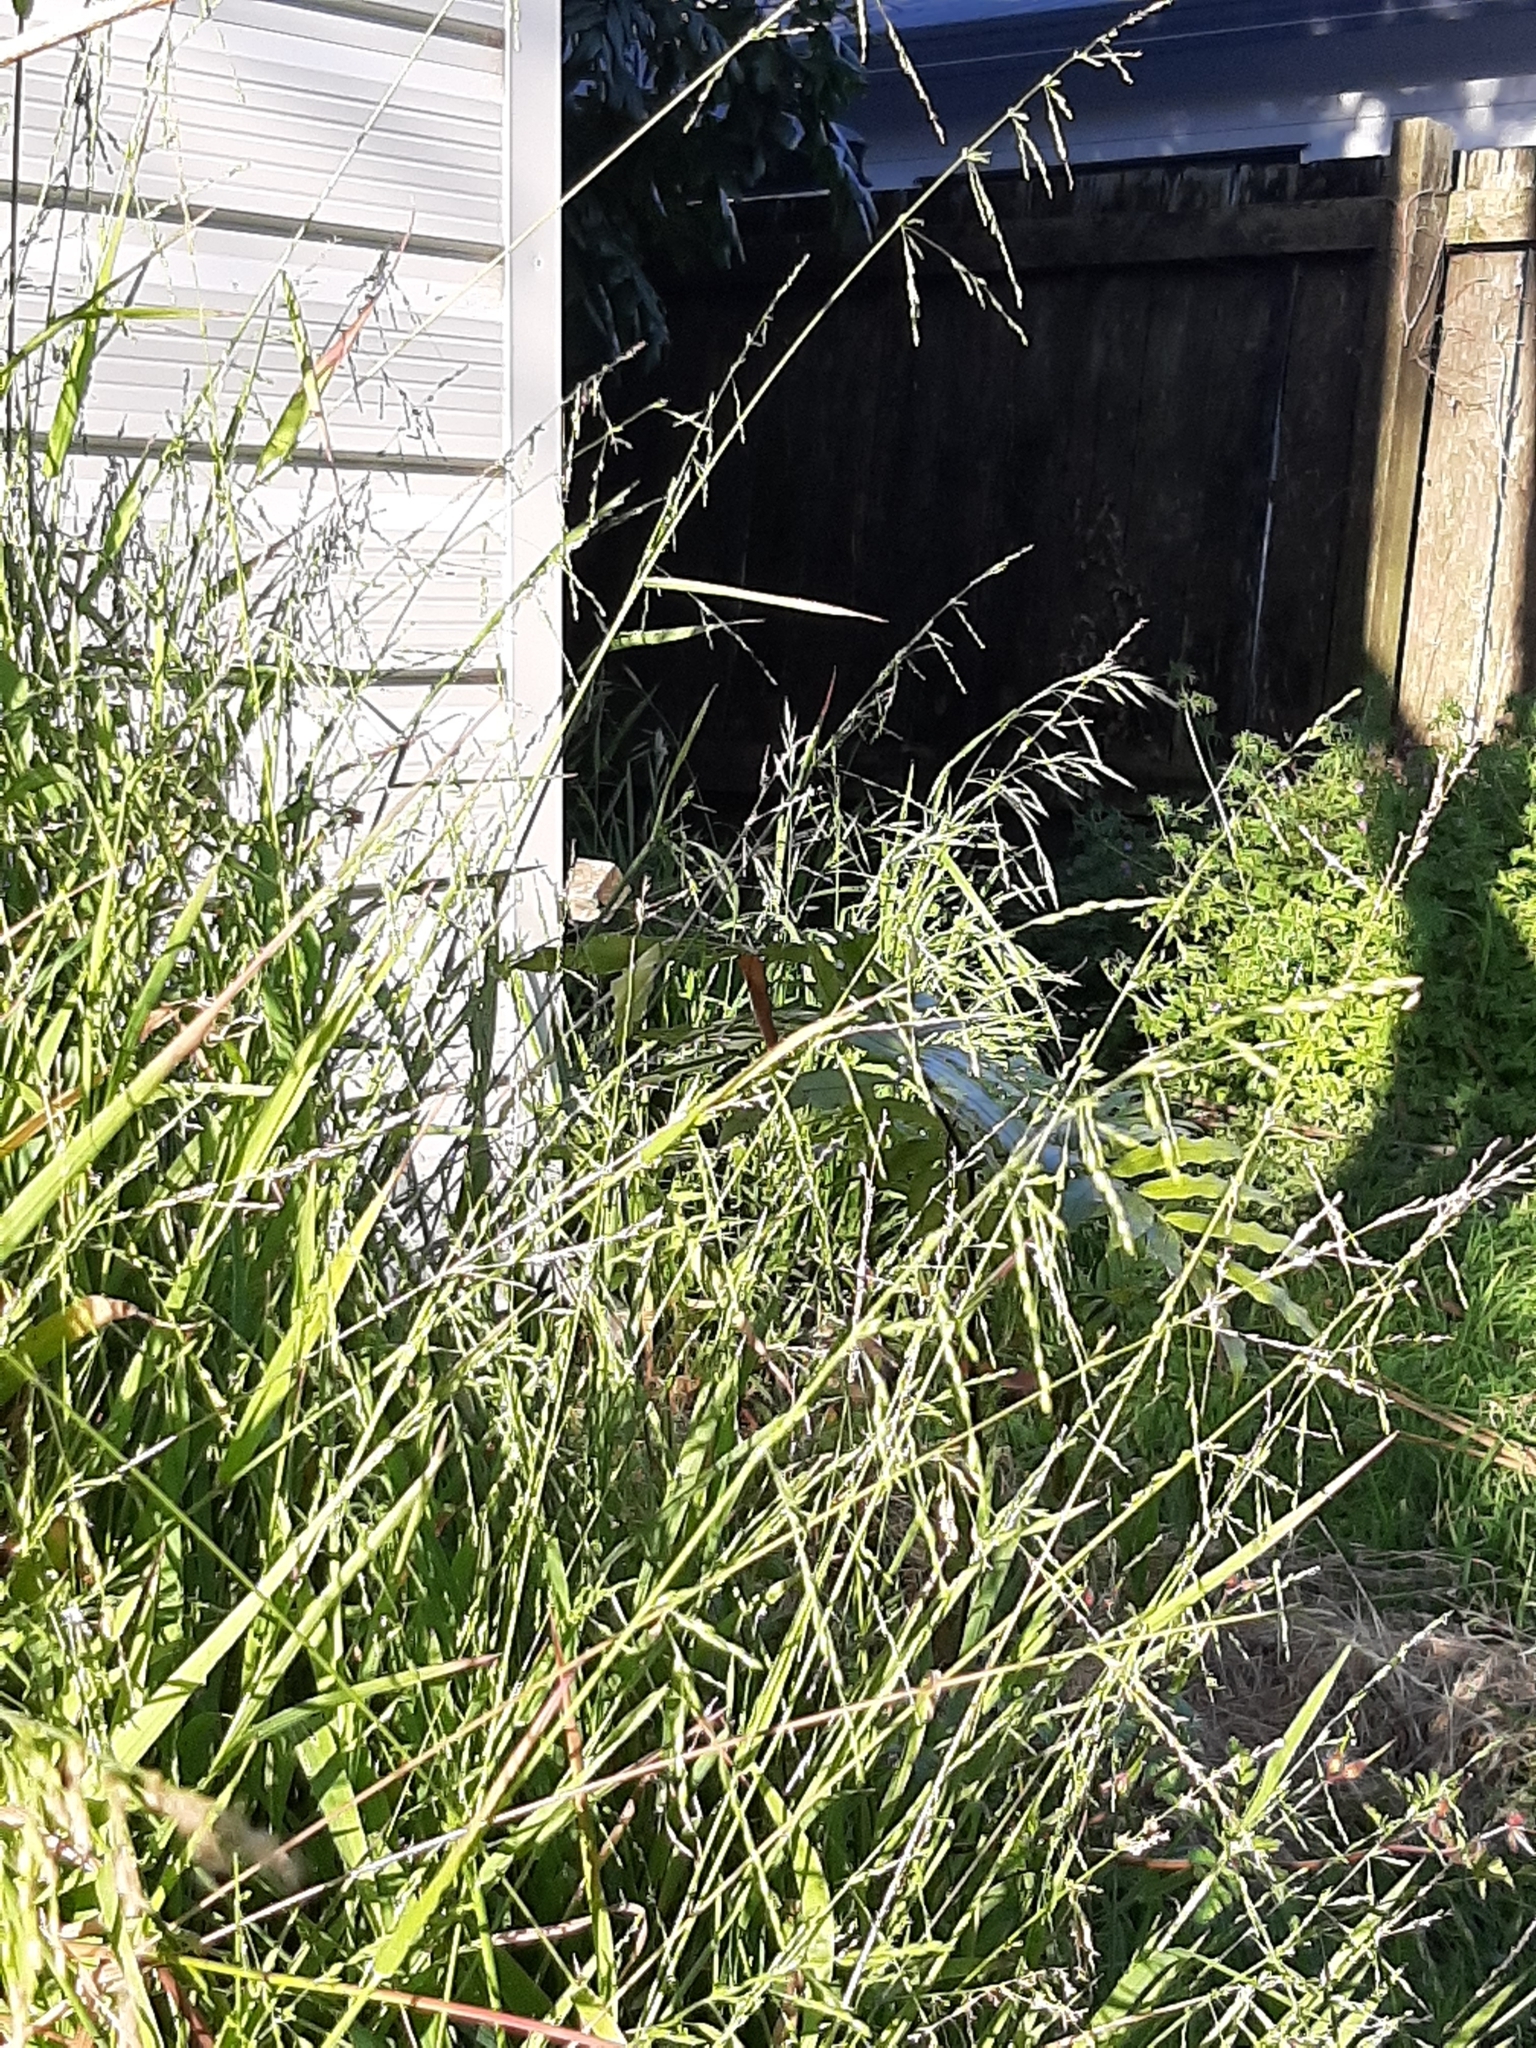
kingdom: Plantae
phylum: Tracheophyta
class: Liliopsida
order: Poales
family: Poaceae
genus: Ehrharta
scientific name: Ehrharta erecta
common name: Panic veldtgrass
